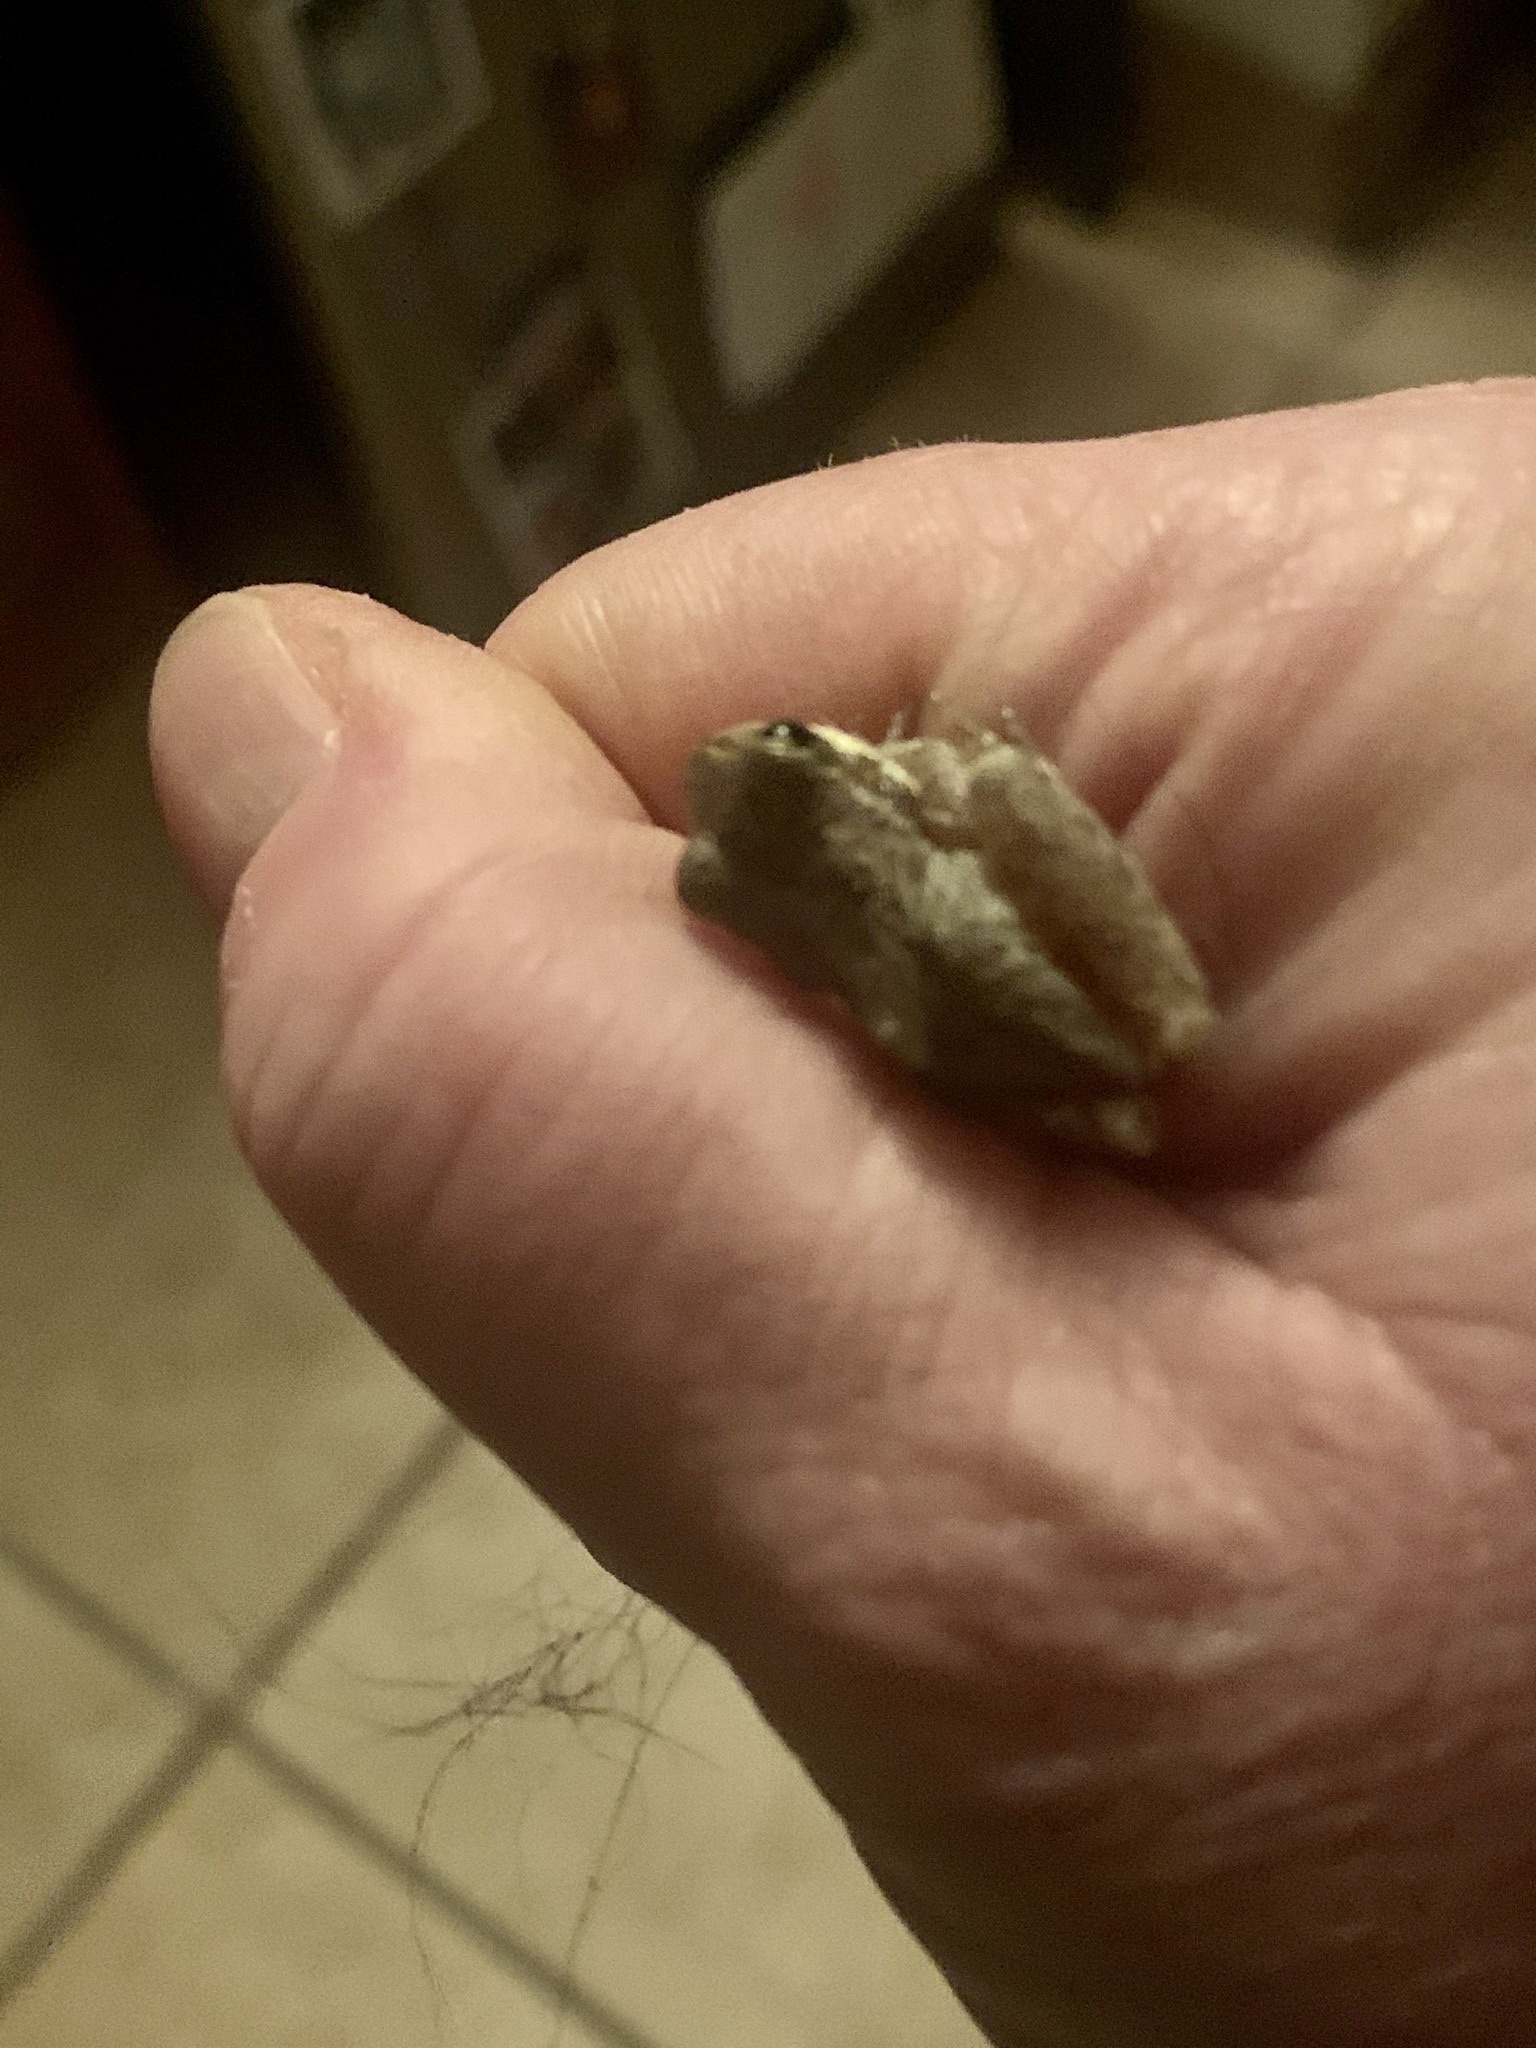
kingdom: Animalia
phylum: Chordata
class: Amphibia
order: Anura
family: Hylidae
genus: Pseudacris
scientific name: Pseudacris regilla
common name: Pacific chorus frog
